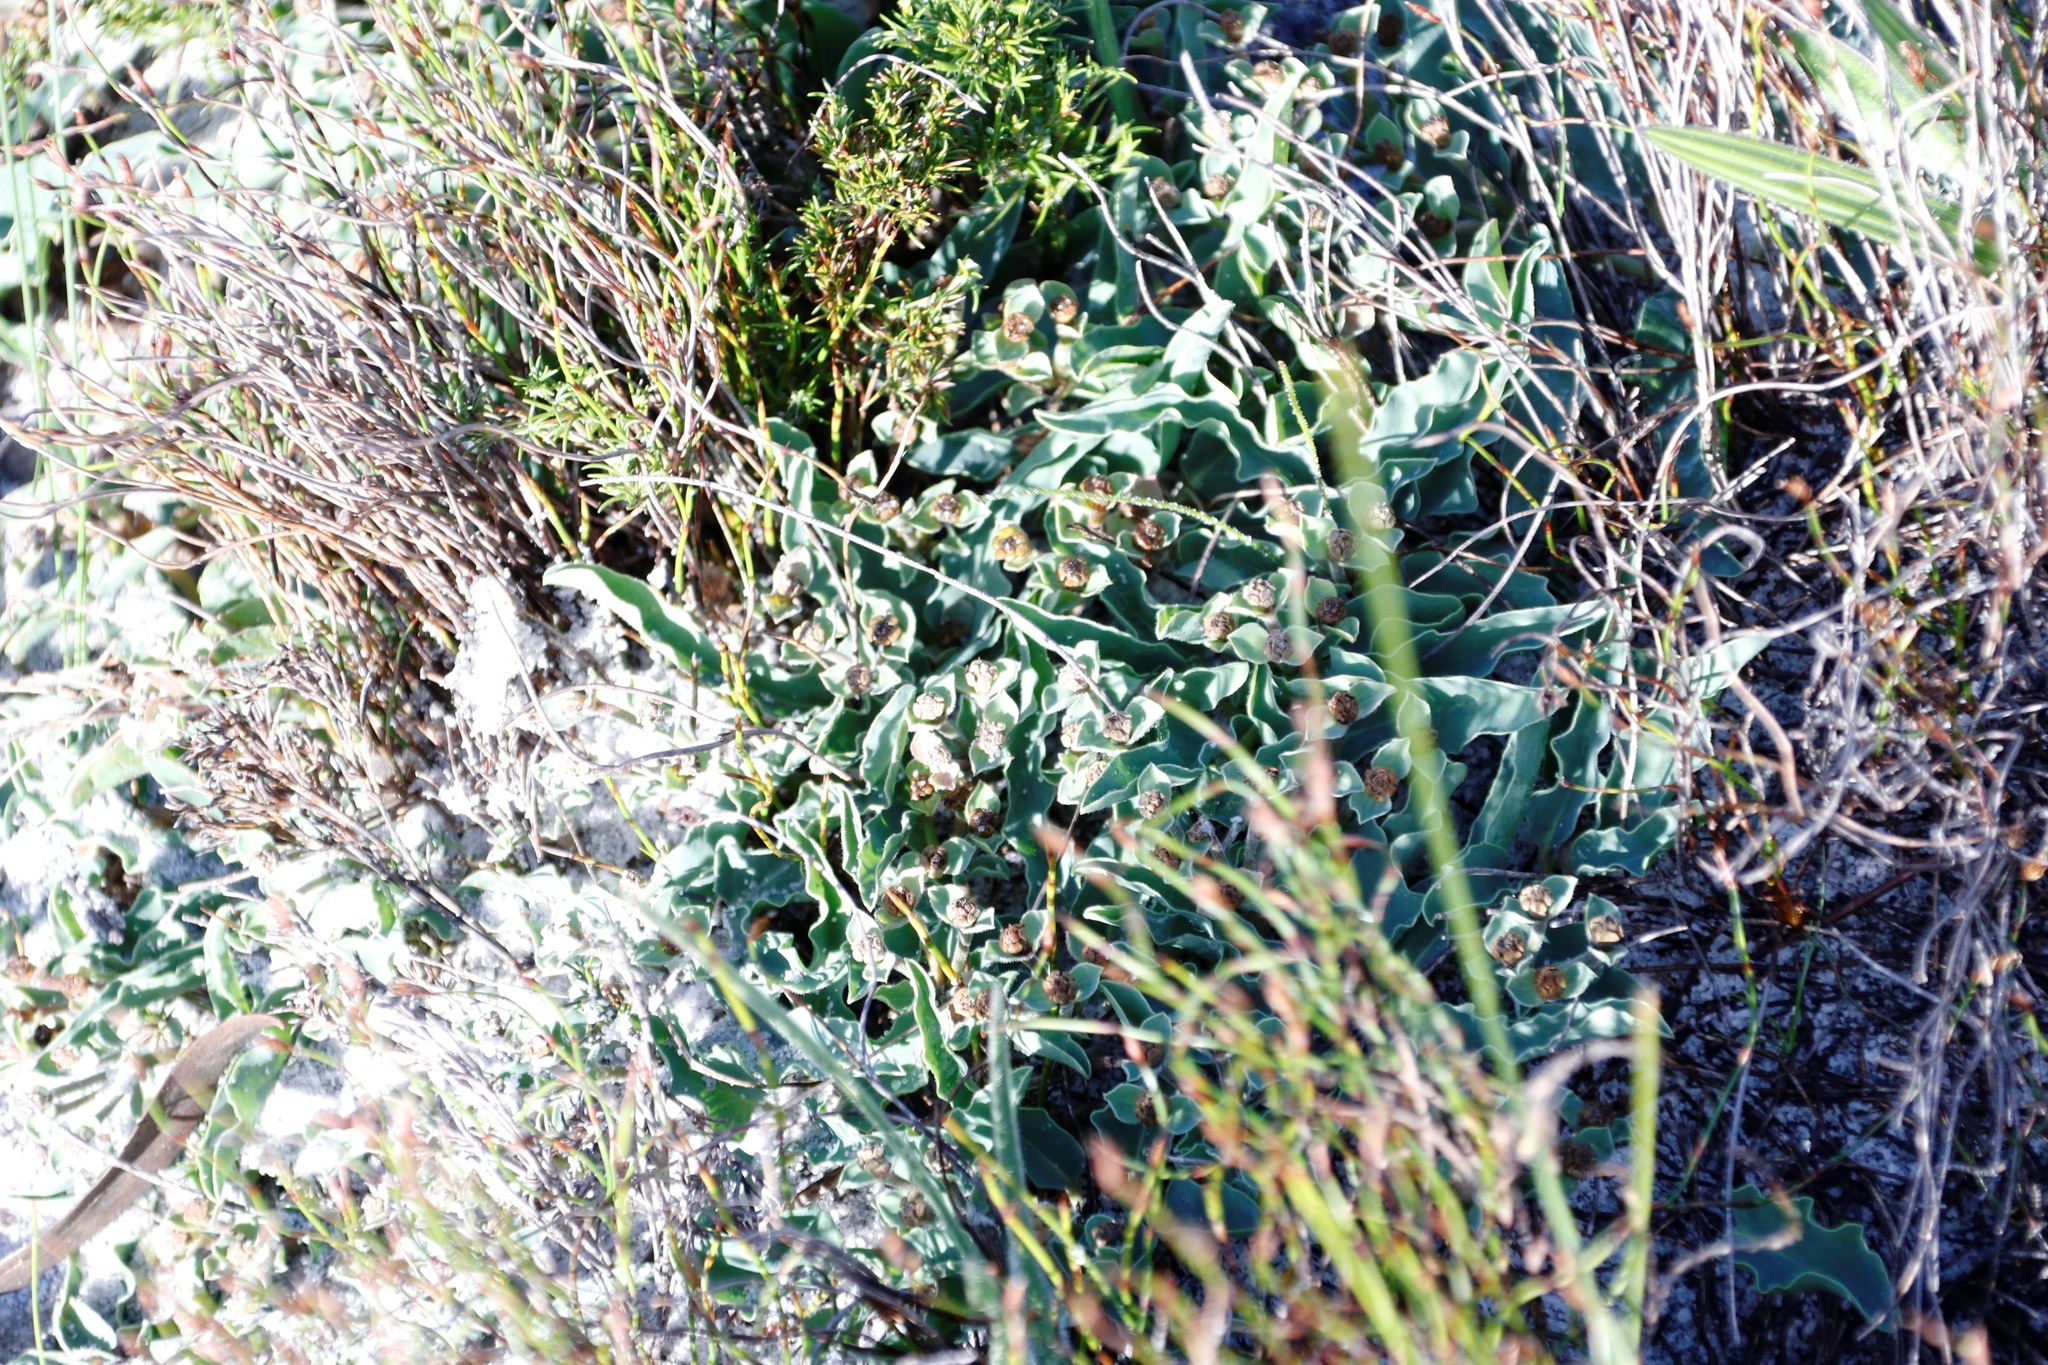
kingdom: Plantae
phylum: Tracheophyta
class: Magnoliopsida
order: Malpighiales
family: Euphorbiaceae
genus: Euphorbia
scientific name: Euphorbia tuberosa
